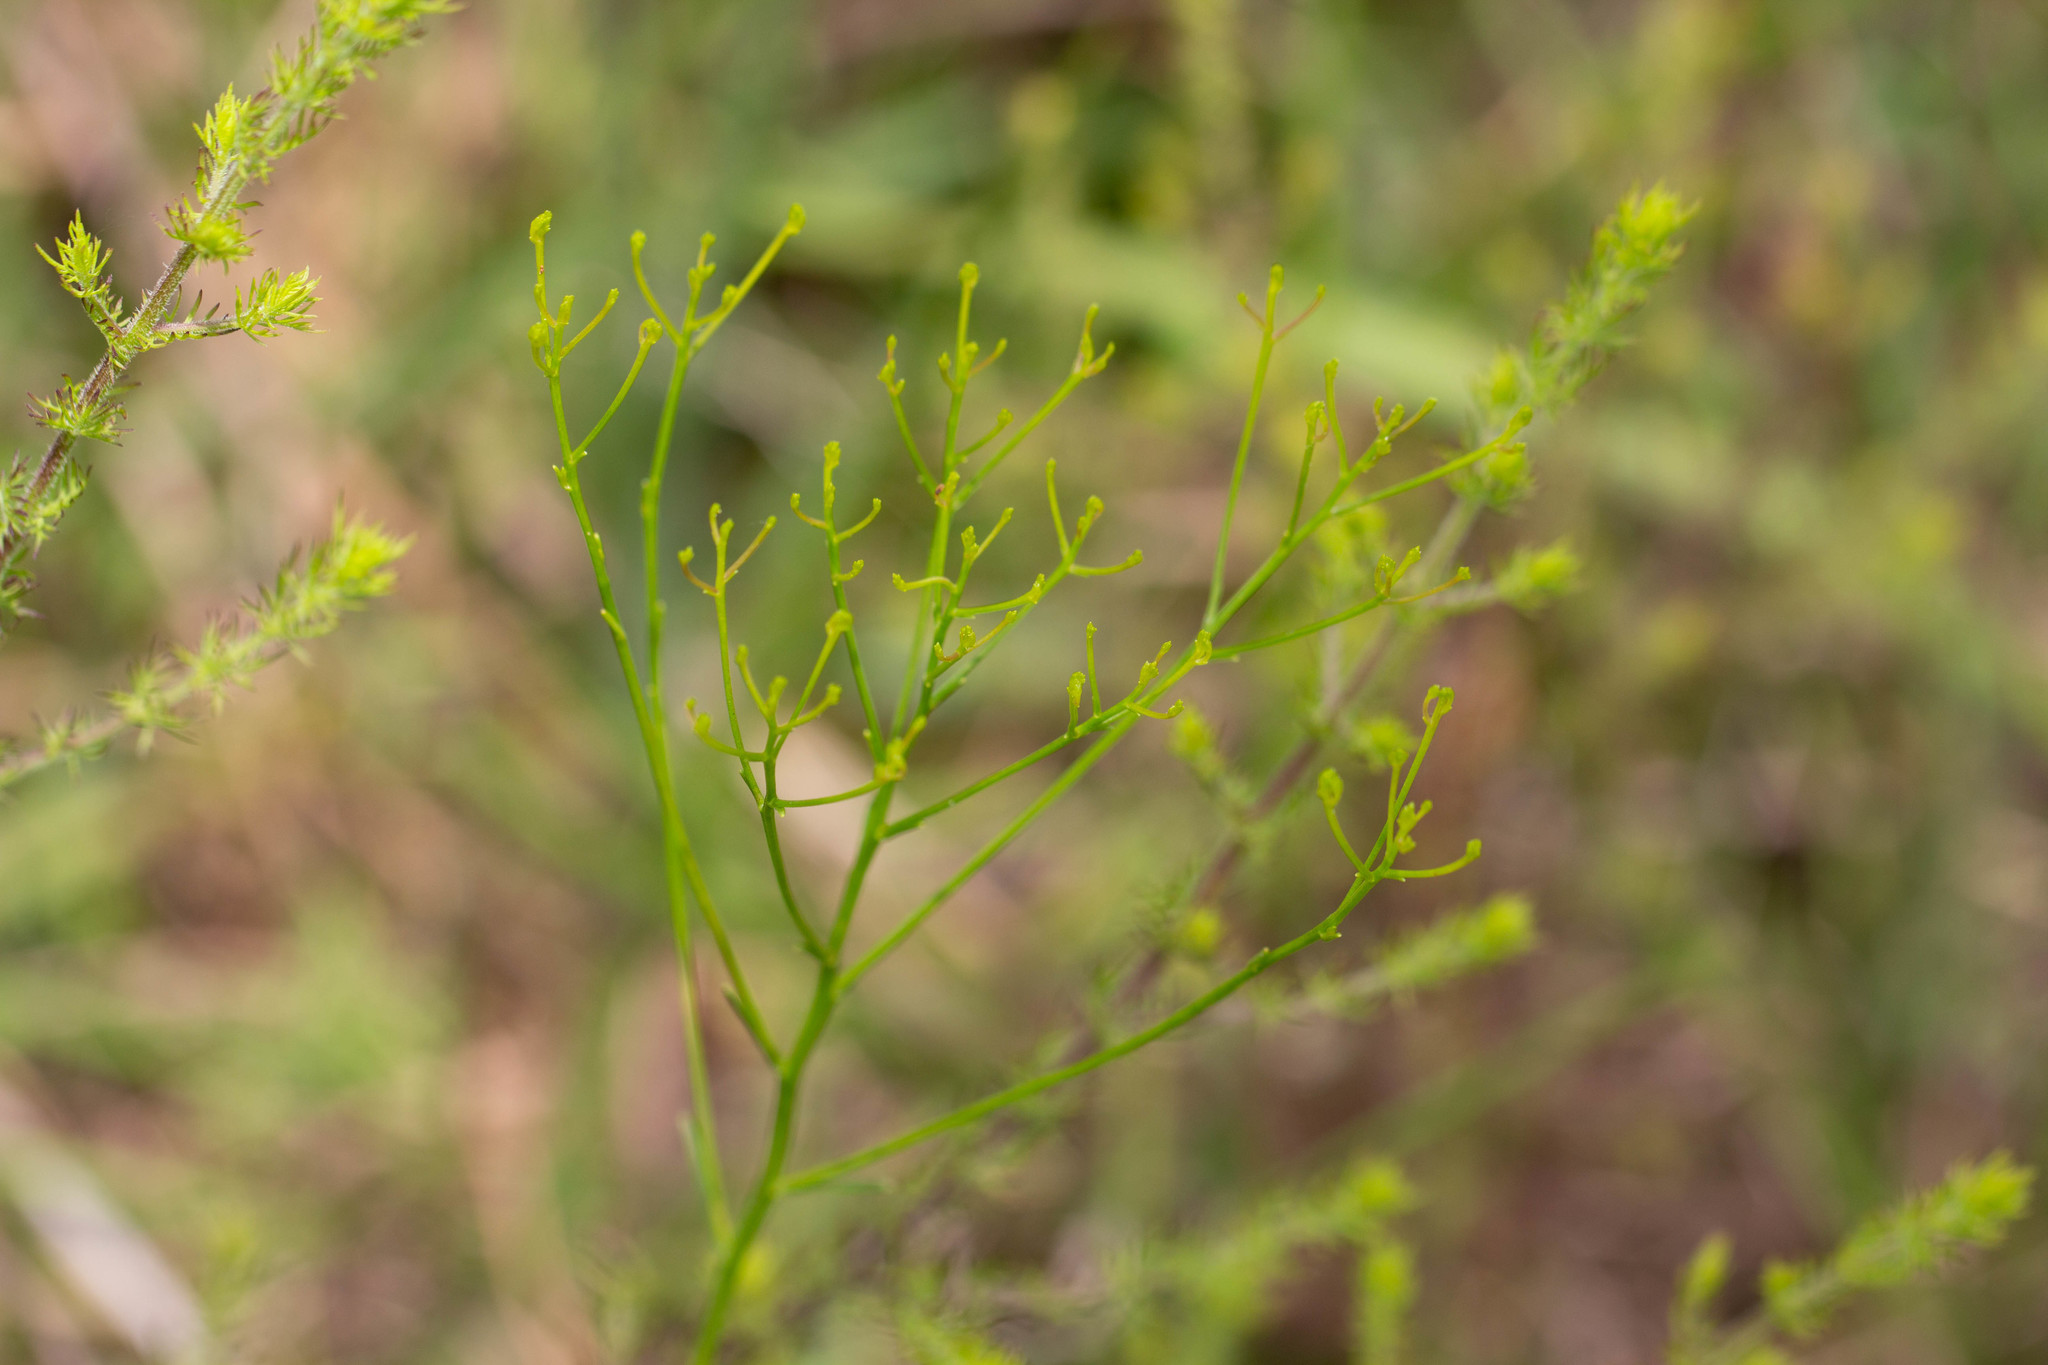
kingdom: Plantae
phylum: Tracheophyta
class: Magnoliopsida
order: Asterales
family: Asteraceae
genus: Bigelowia
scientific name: Bigelowia nudata
